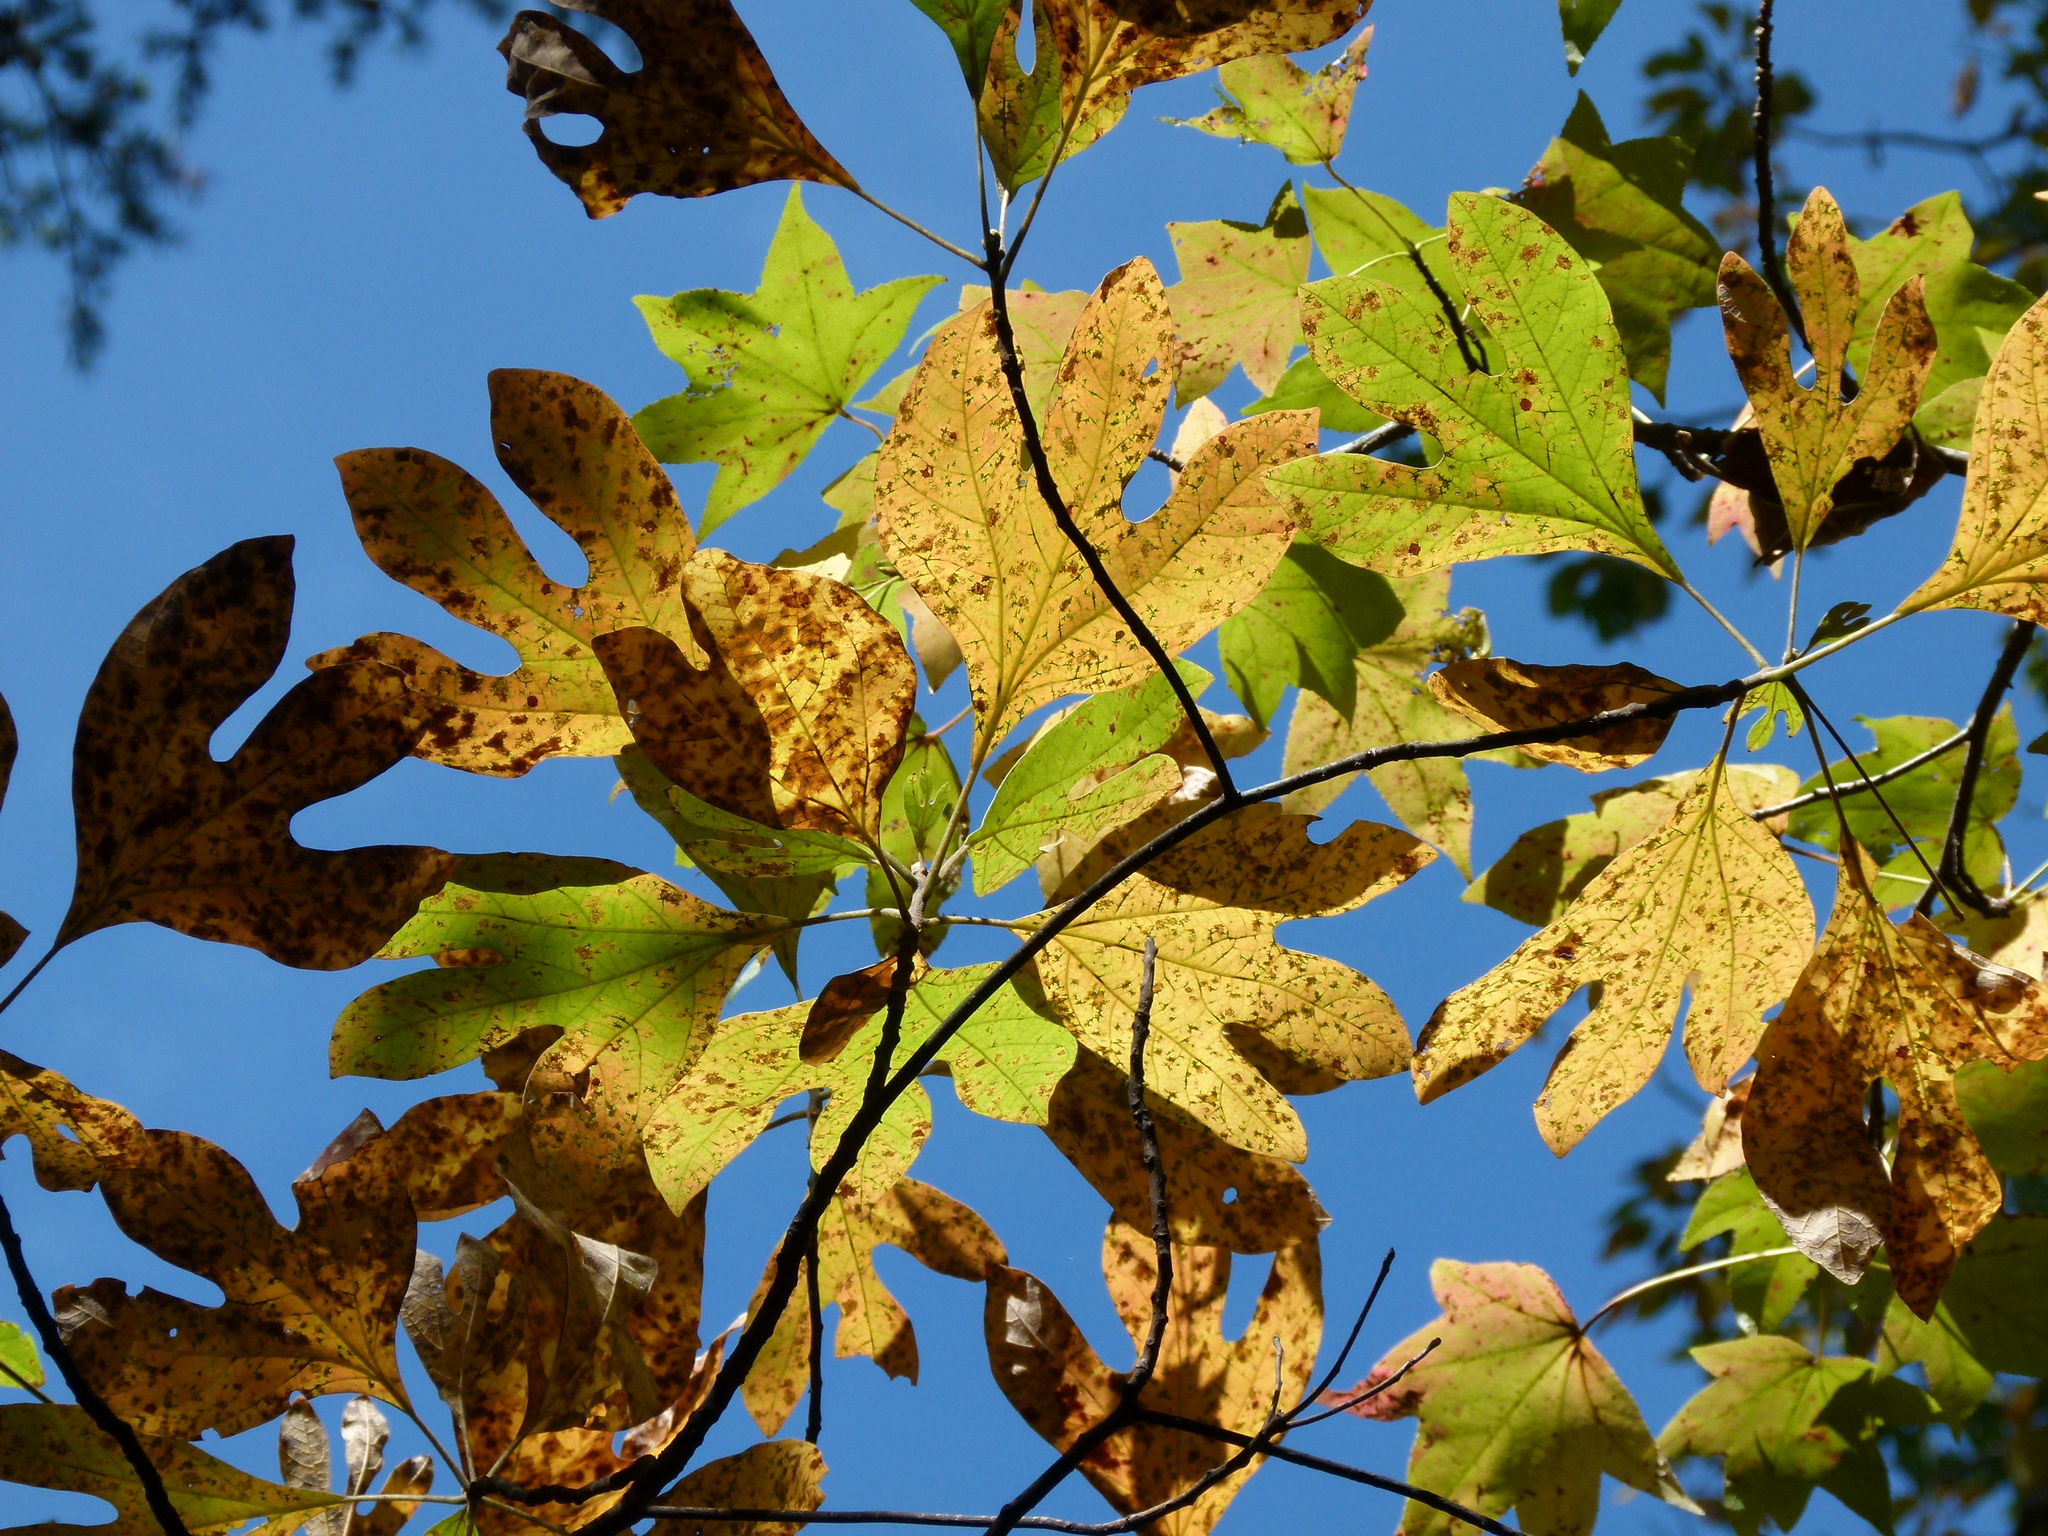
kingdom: Plantae
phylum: Tracheophyta
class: Magnoliopsida
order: Laurales
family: Lauraceae
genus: Sassafras
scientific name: Sassafras albidum
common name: Sassafras
